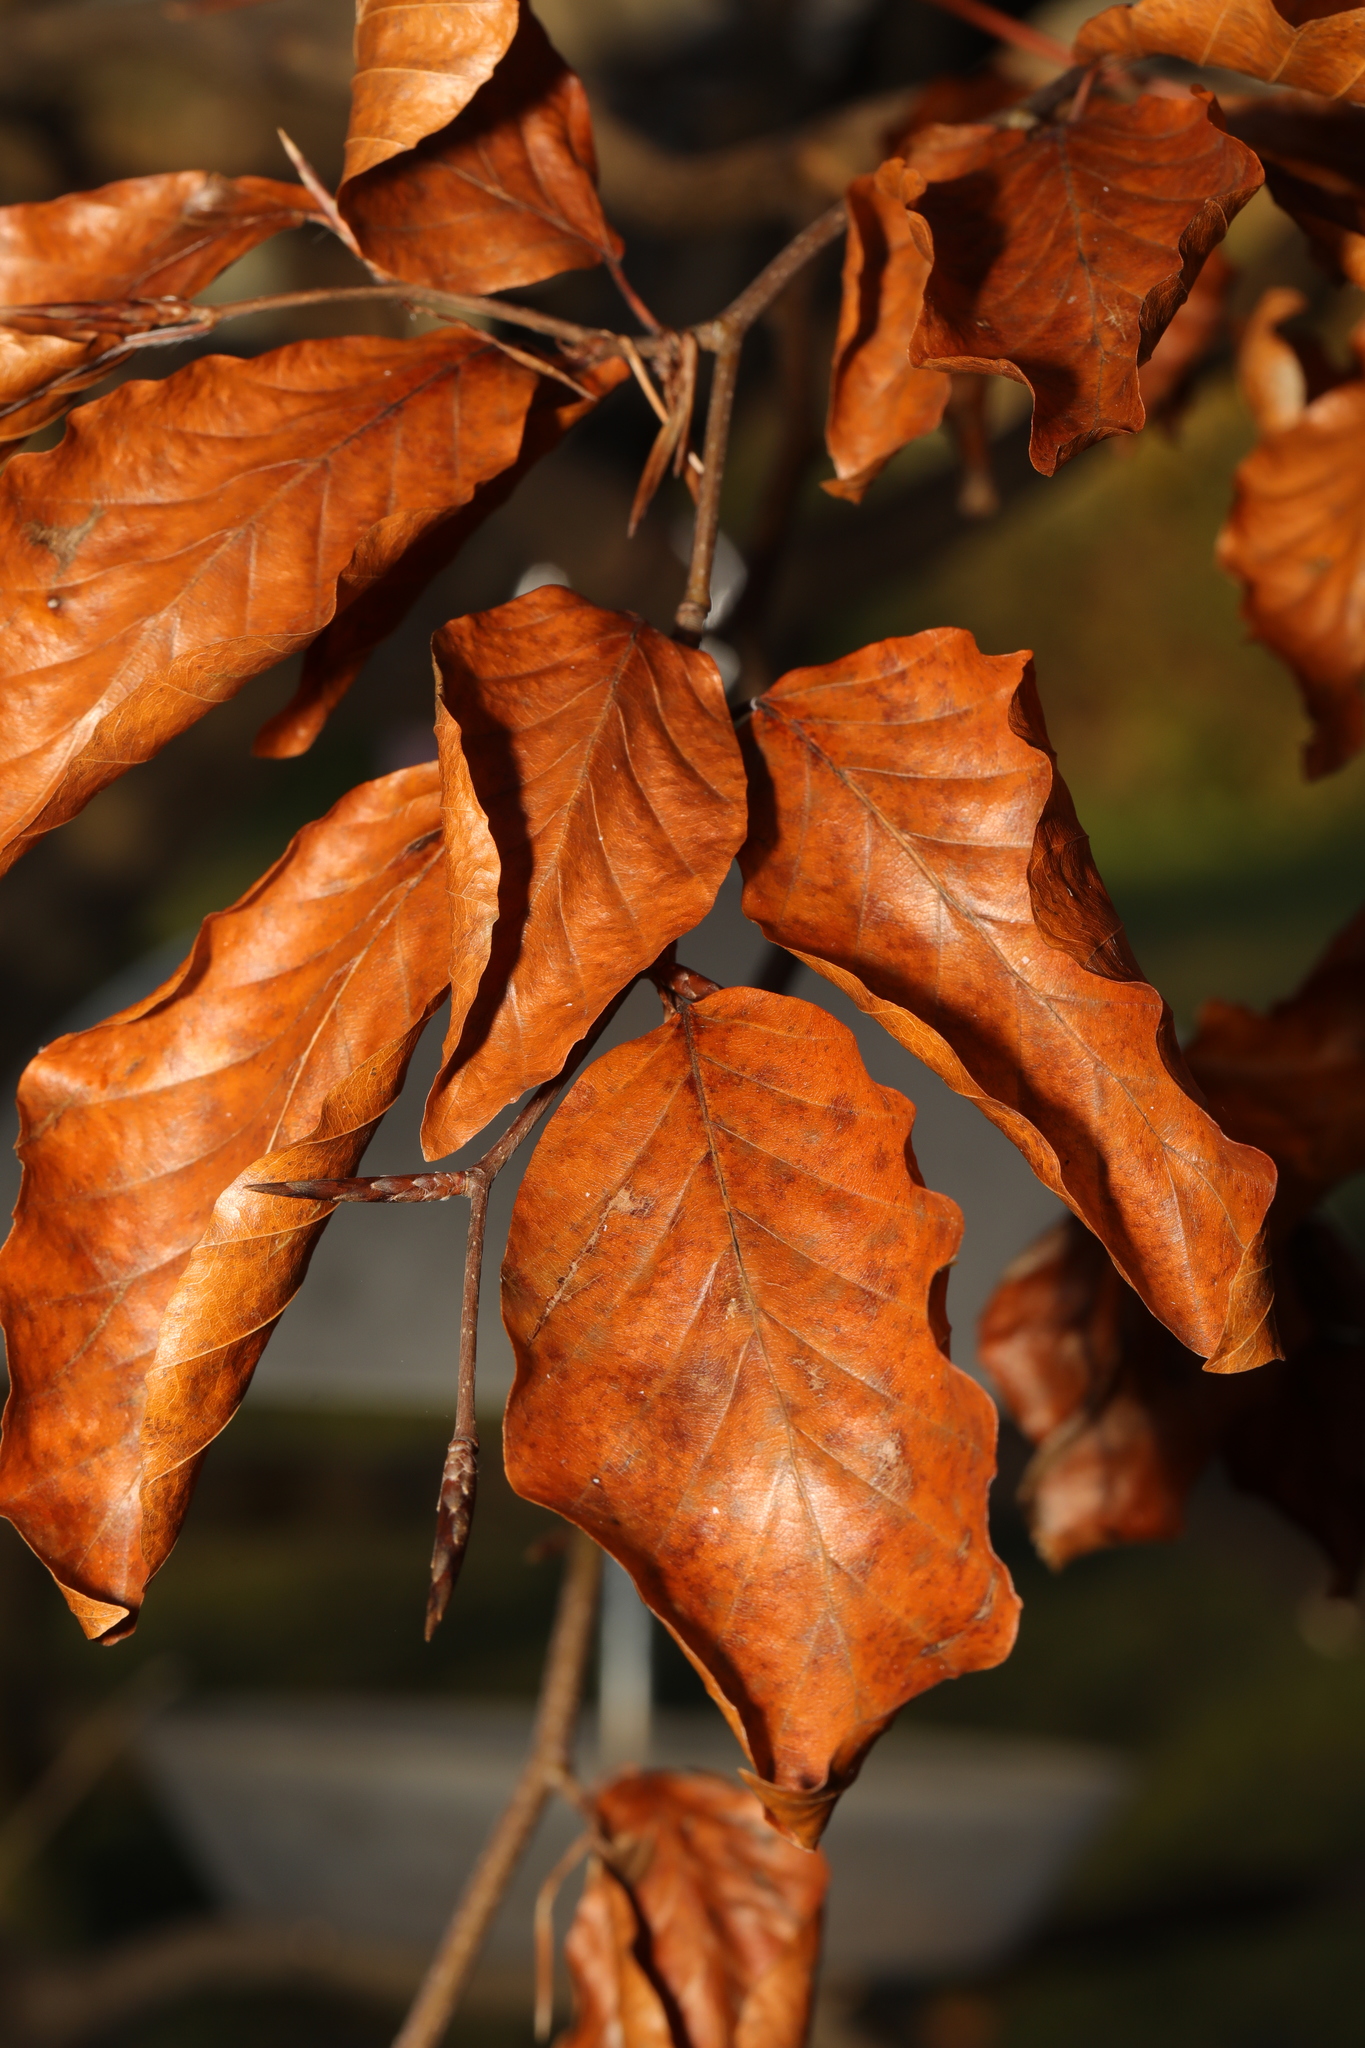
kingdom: Plantae
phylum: Tracheophyta
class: Magnoliopsida
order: Fagales
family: Fagaceae
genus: Fagus
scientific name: Fagus sylvatica
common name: Beech
